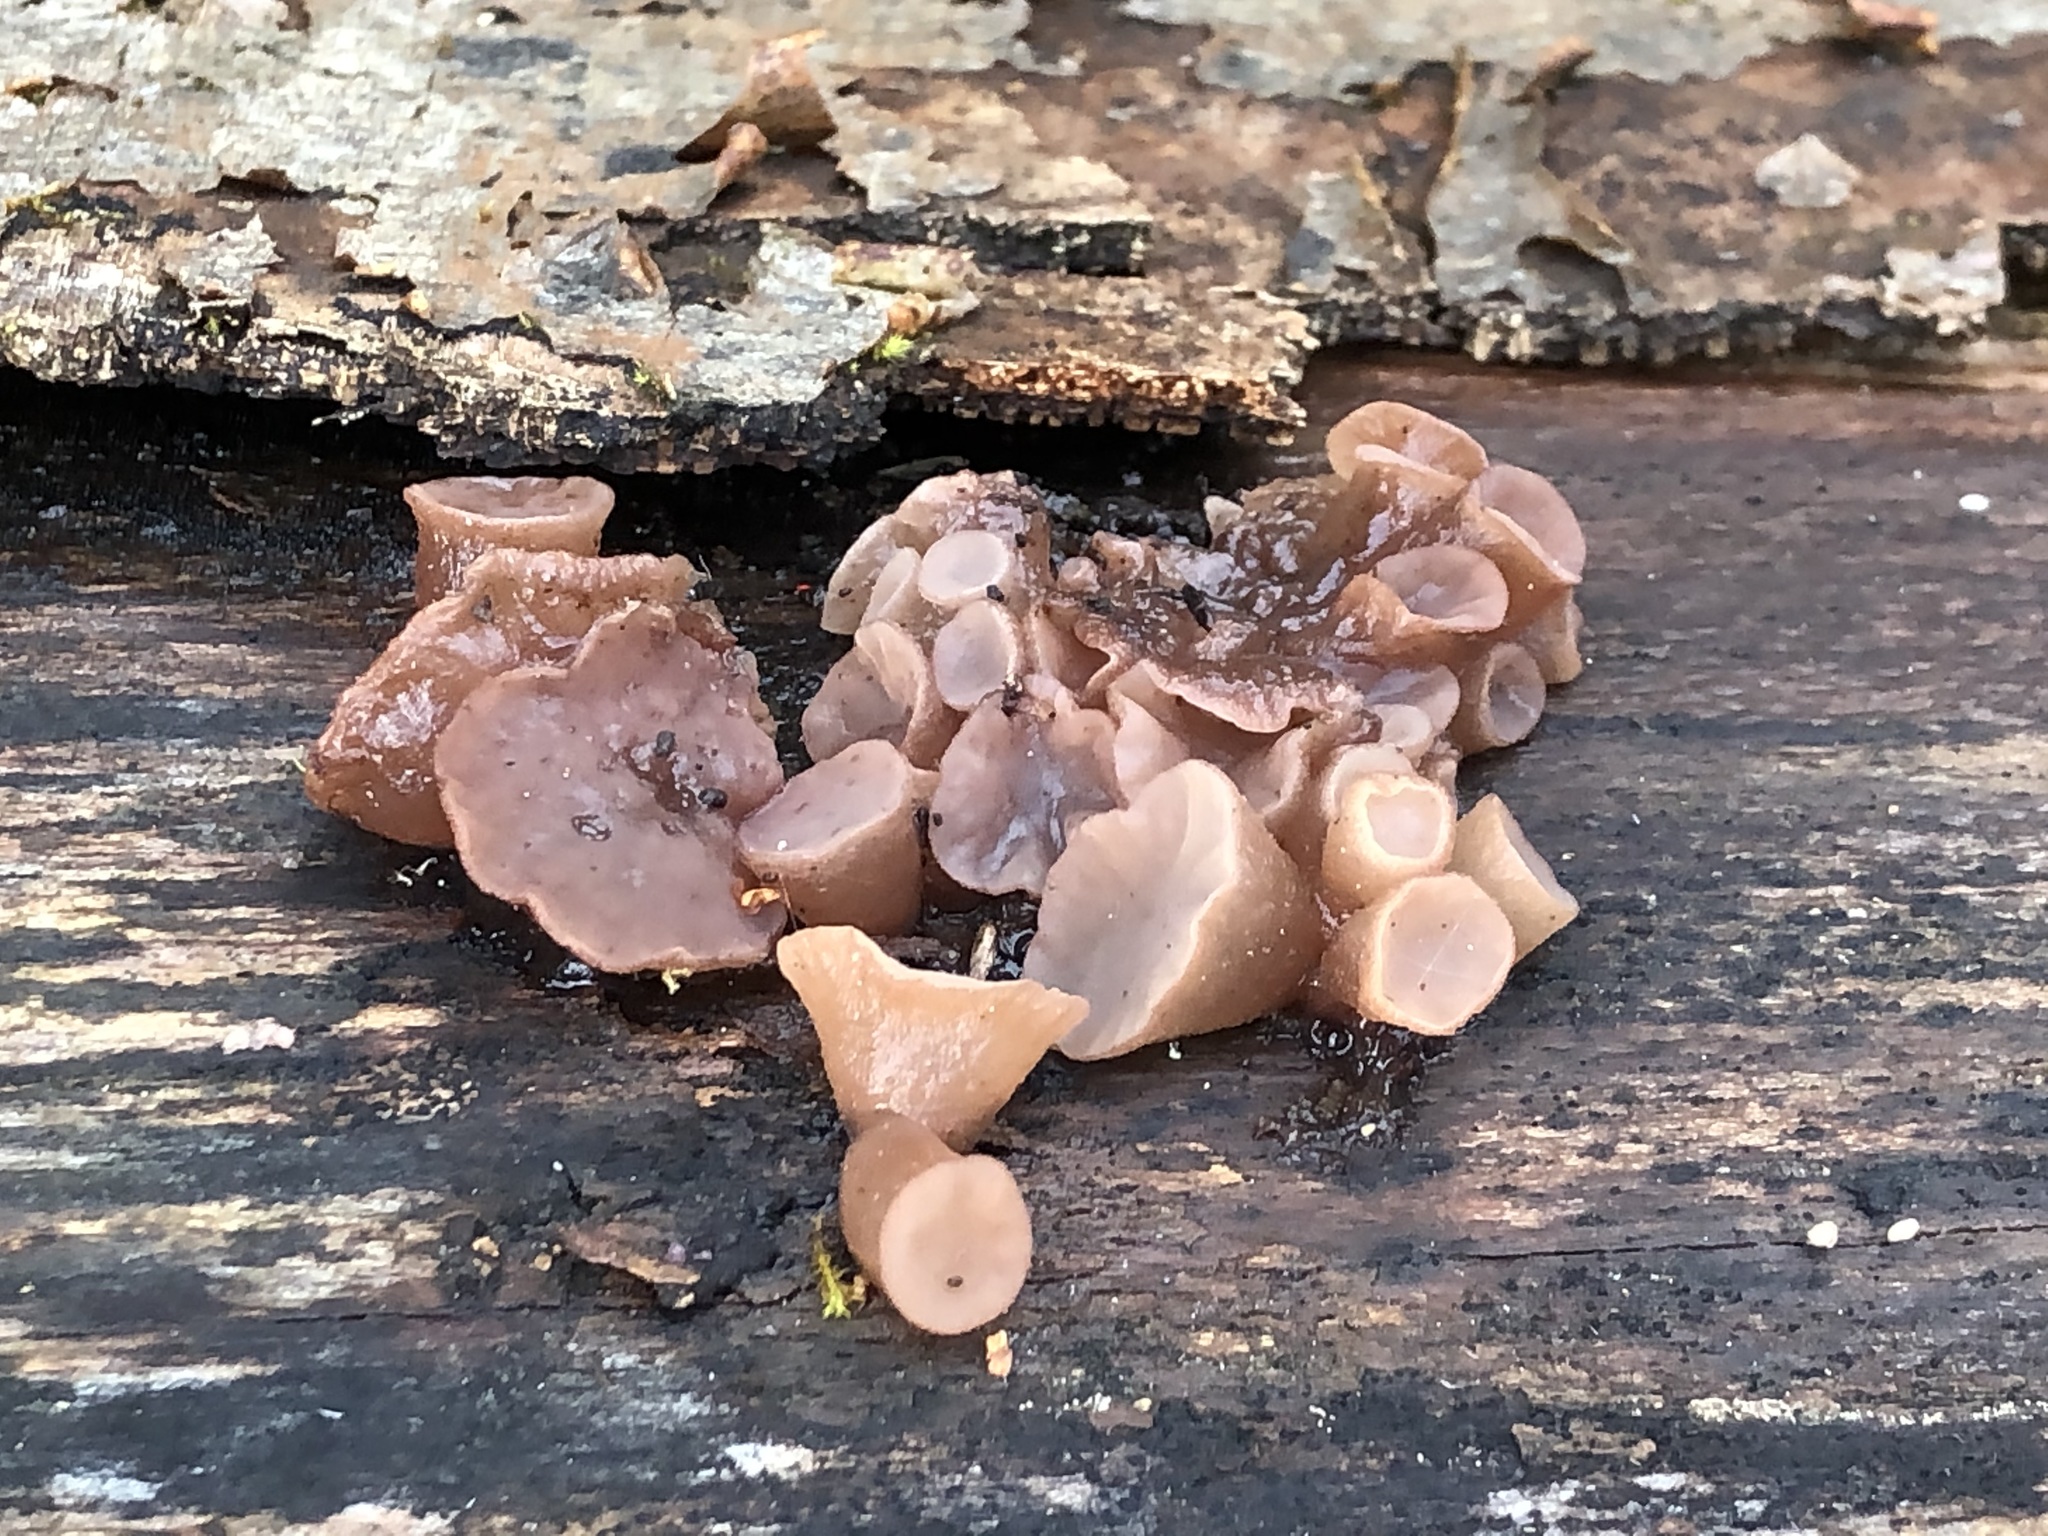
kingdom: Fungi
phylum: Ascomycota
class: Leotiomycetes
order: Helotiales
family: Gelatinodiscaceae
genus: Ascocoryne
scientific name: Ascocoryne sarcoides
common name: Purple jellydisc
